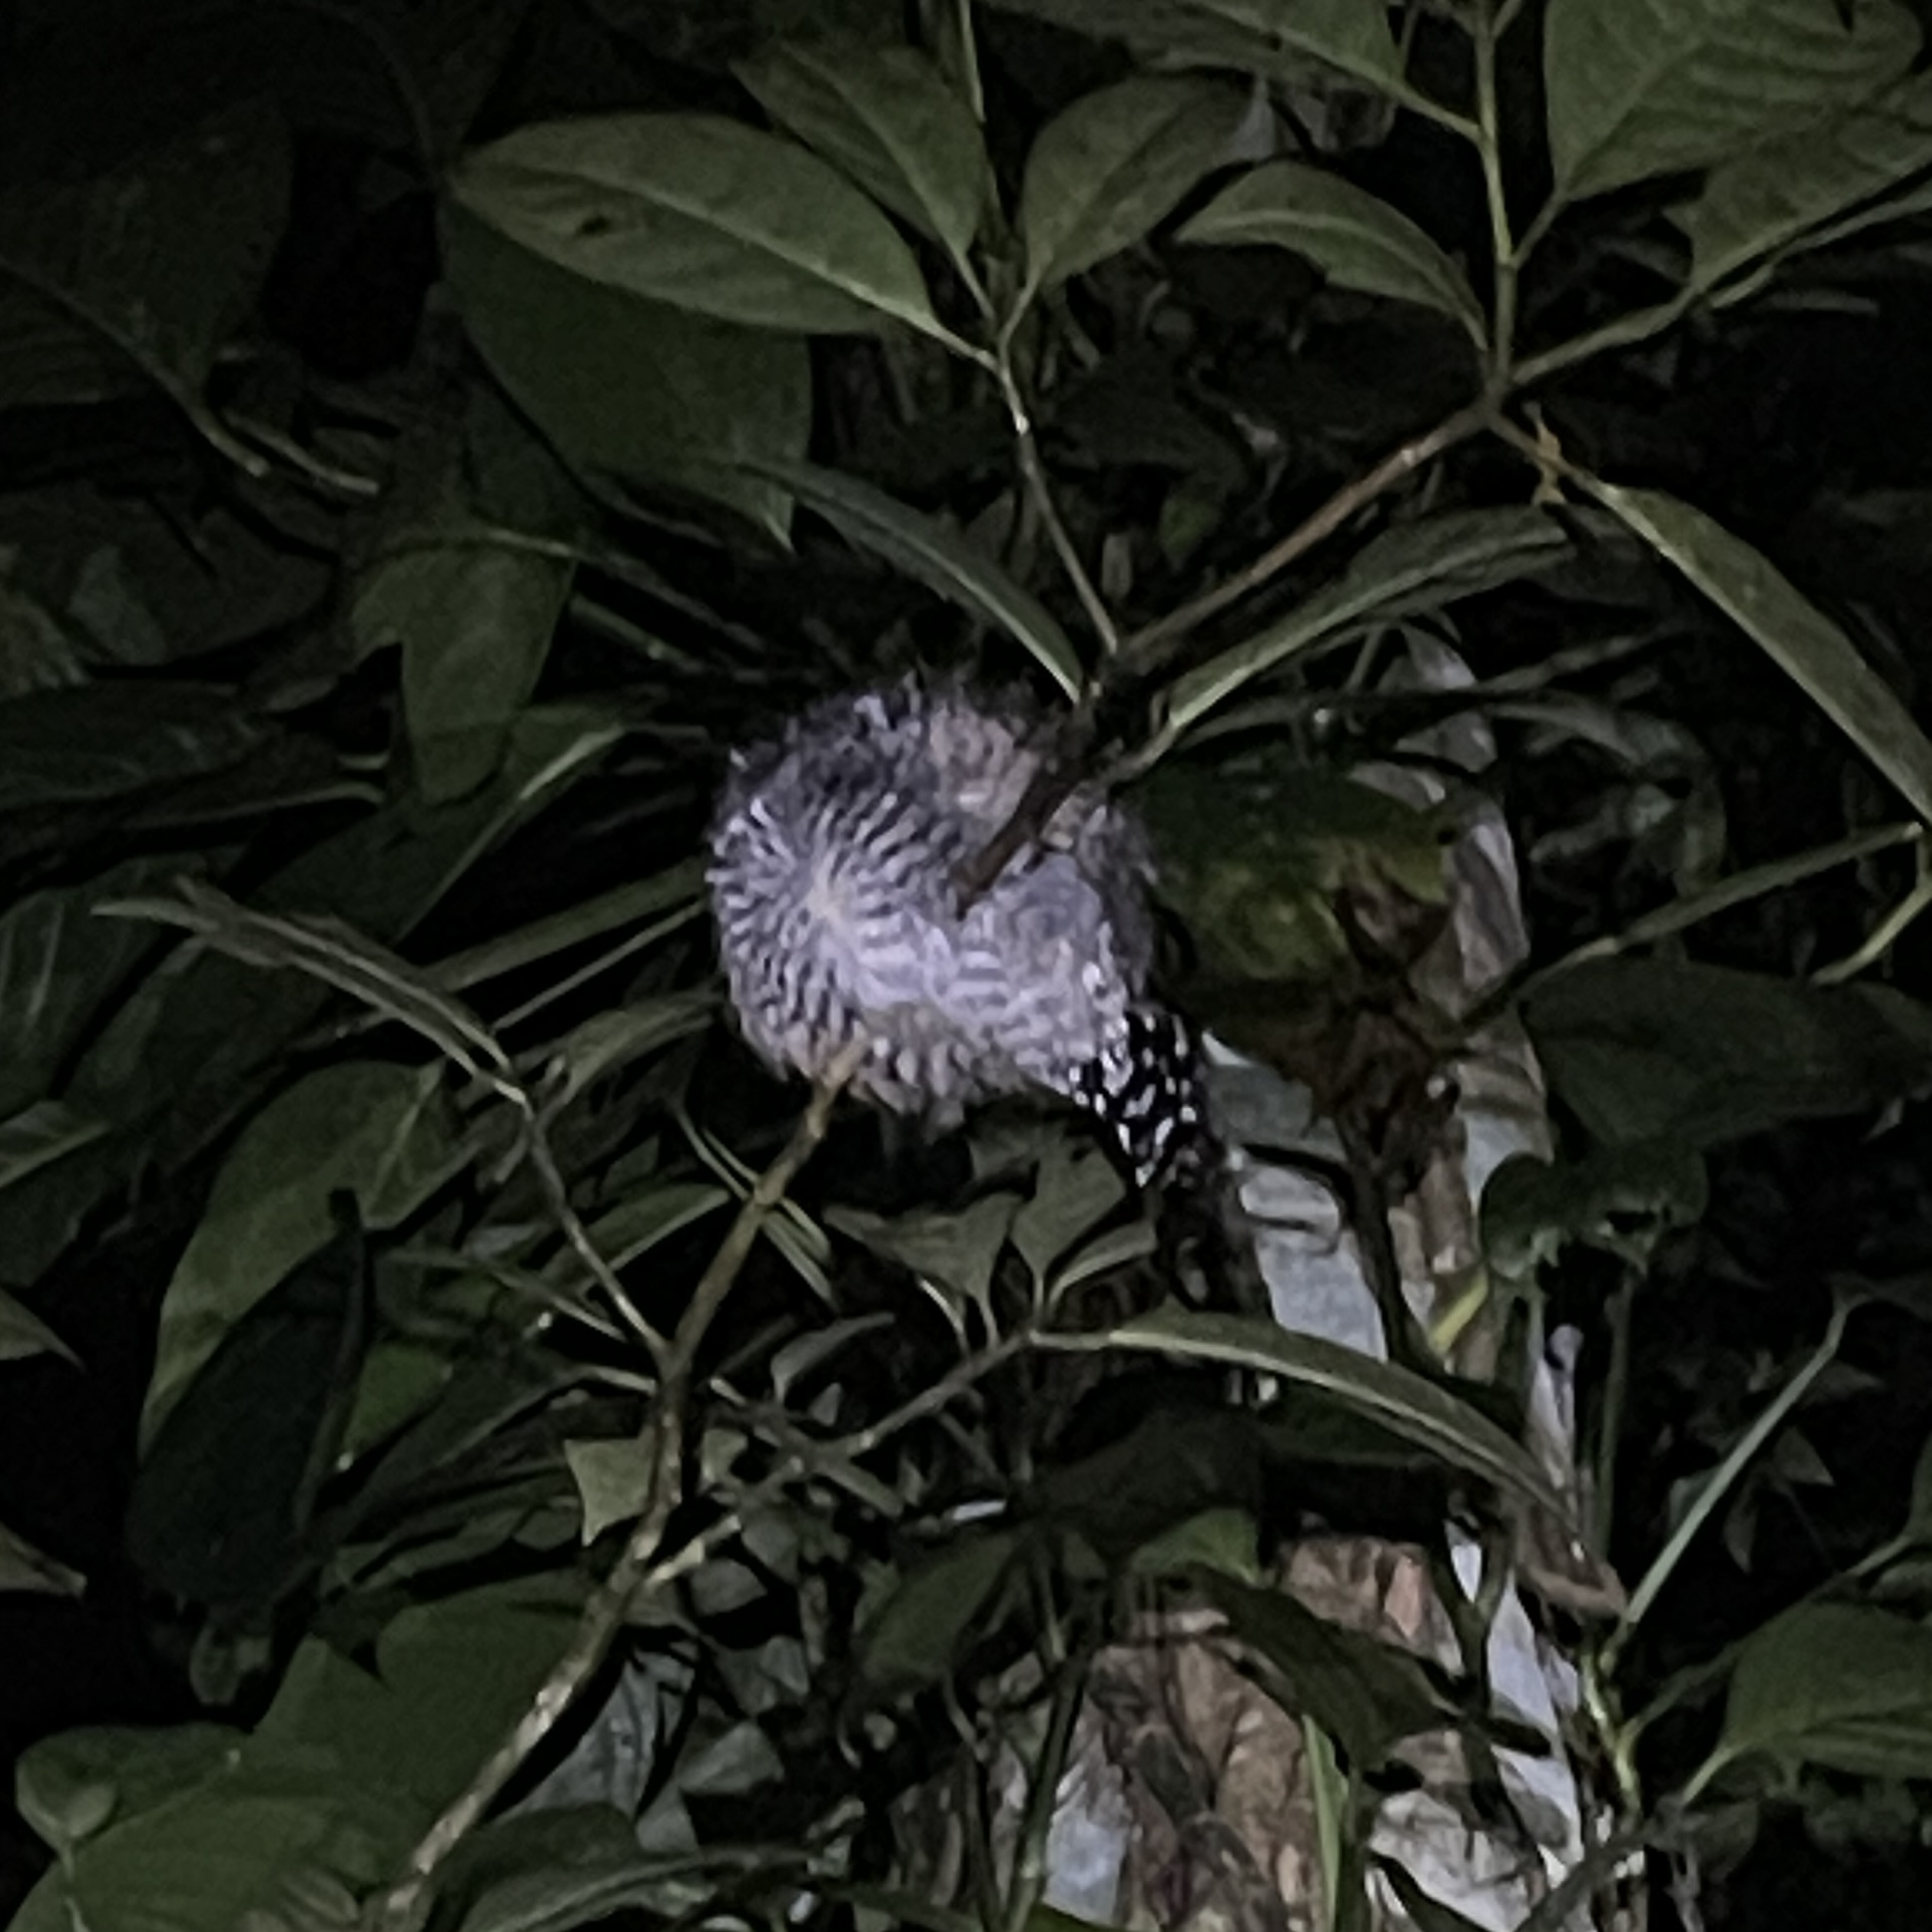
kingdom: Animalia
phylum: Chordata
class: Aves
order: Passeriformes
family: Thamnophilidae
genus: Thamnophilus
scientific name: Thamnophilus doliatus
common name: Barred antshrike
